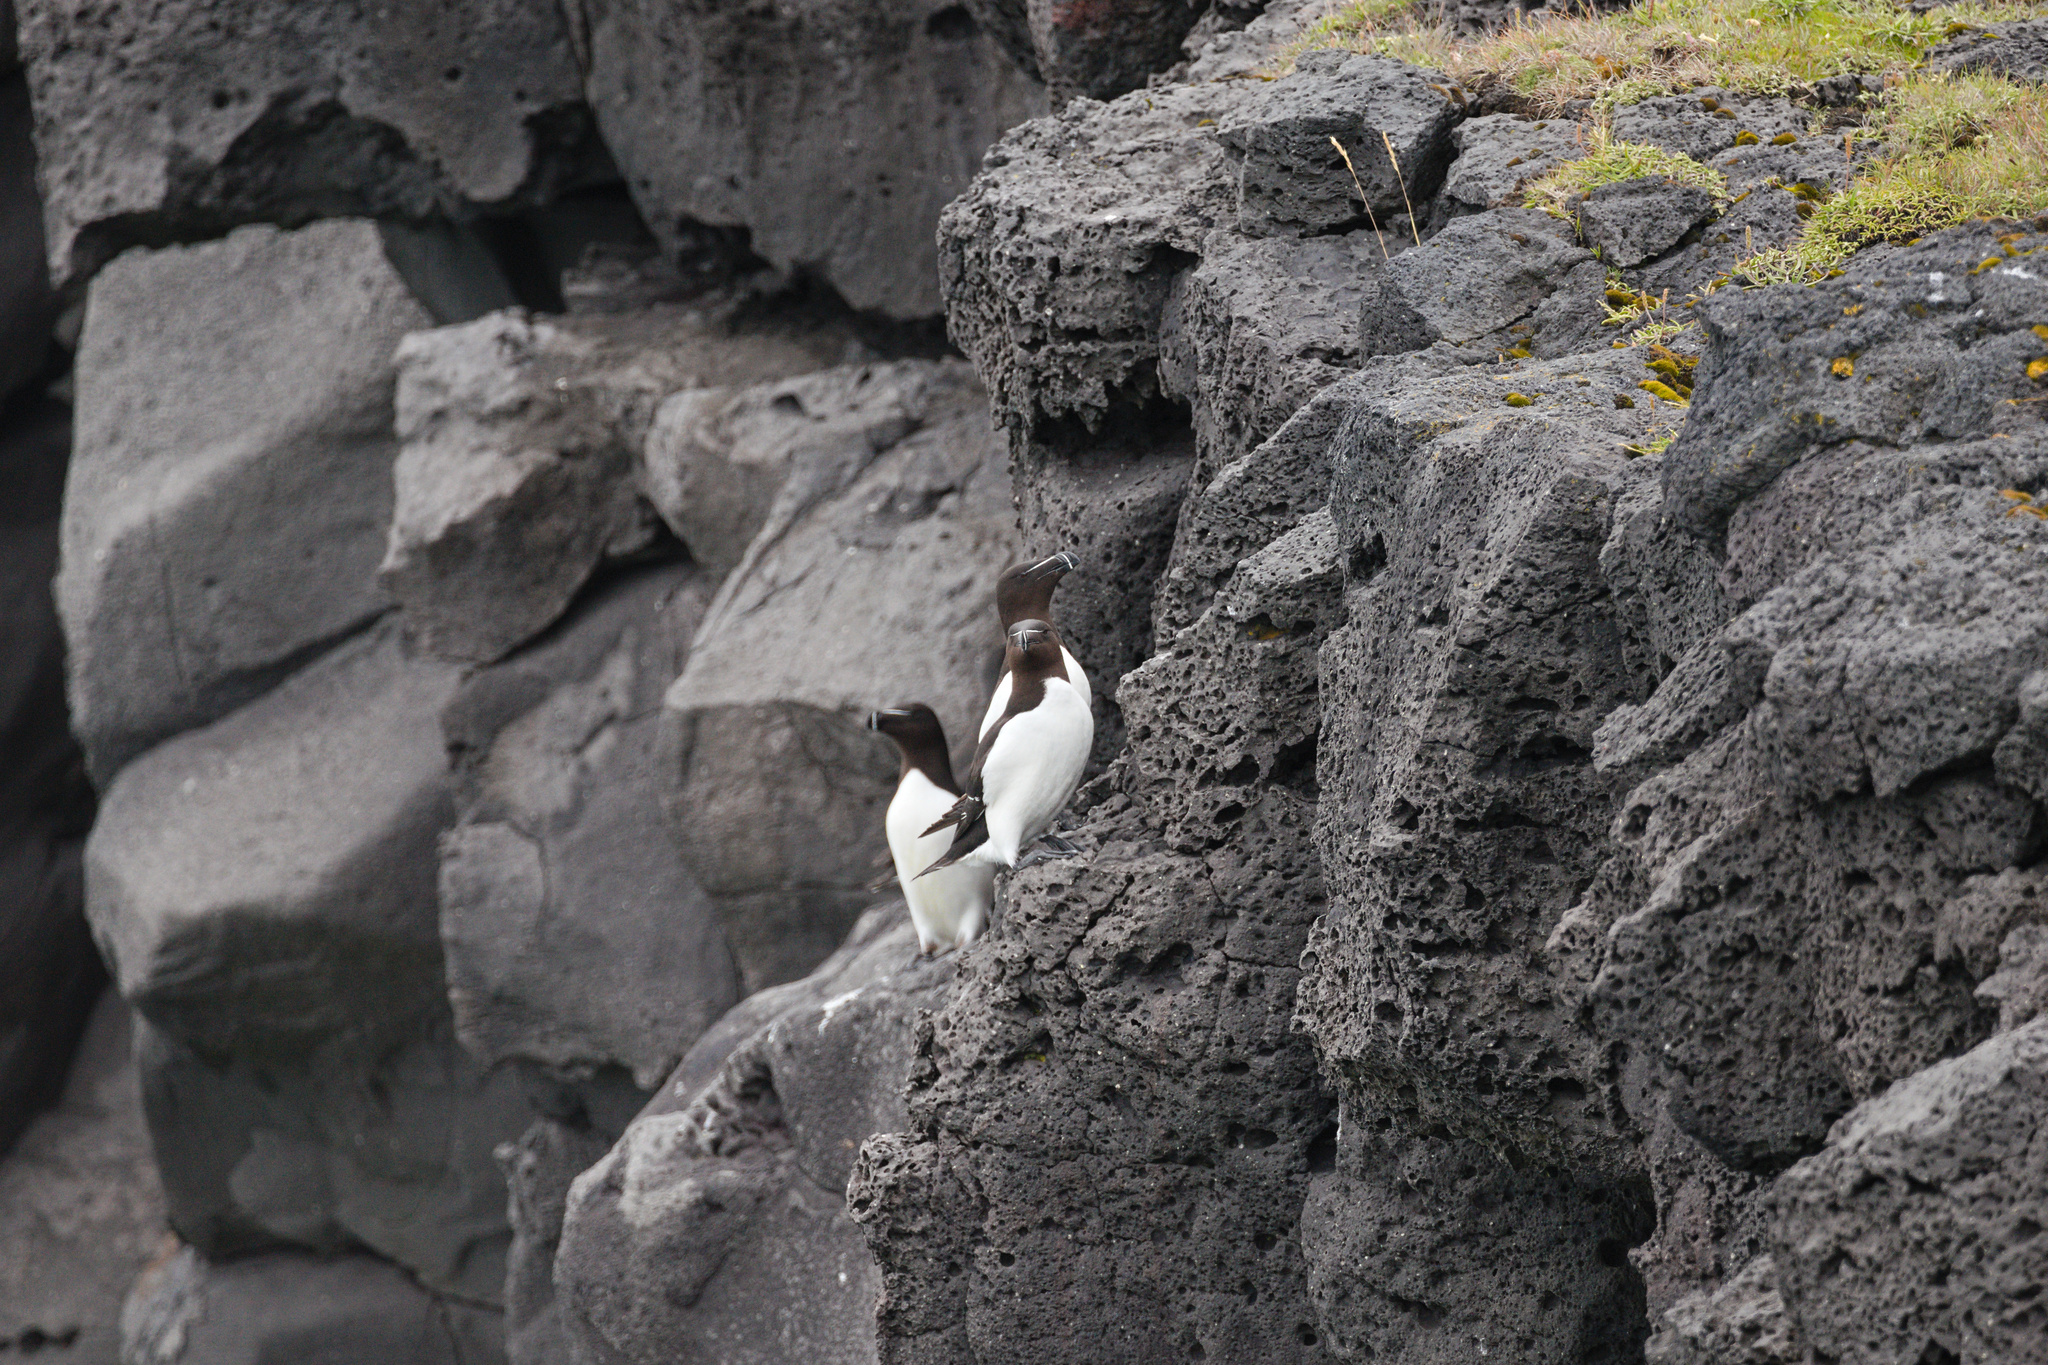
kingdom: Animalia
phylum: Chordata
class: Aves
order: Charadriiformes
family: Alcidae
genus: Alca
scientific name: Alca torda
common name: Razorbill
